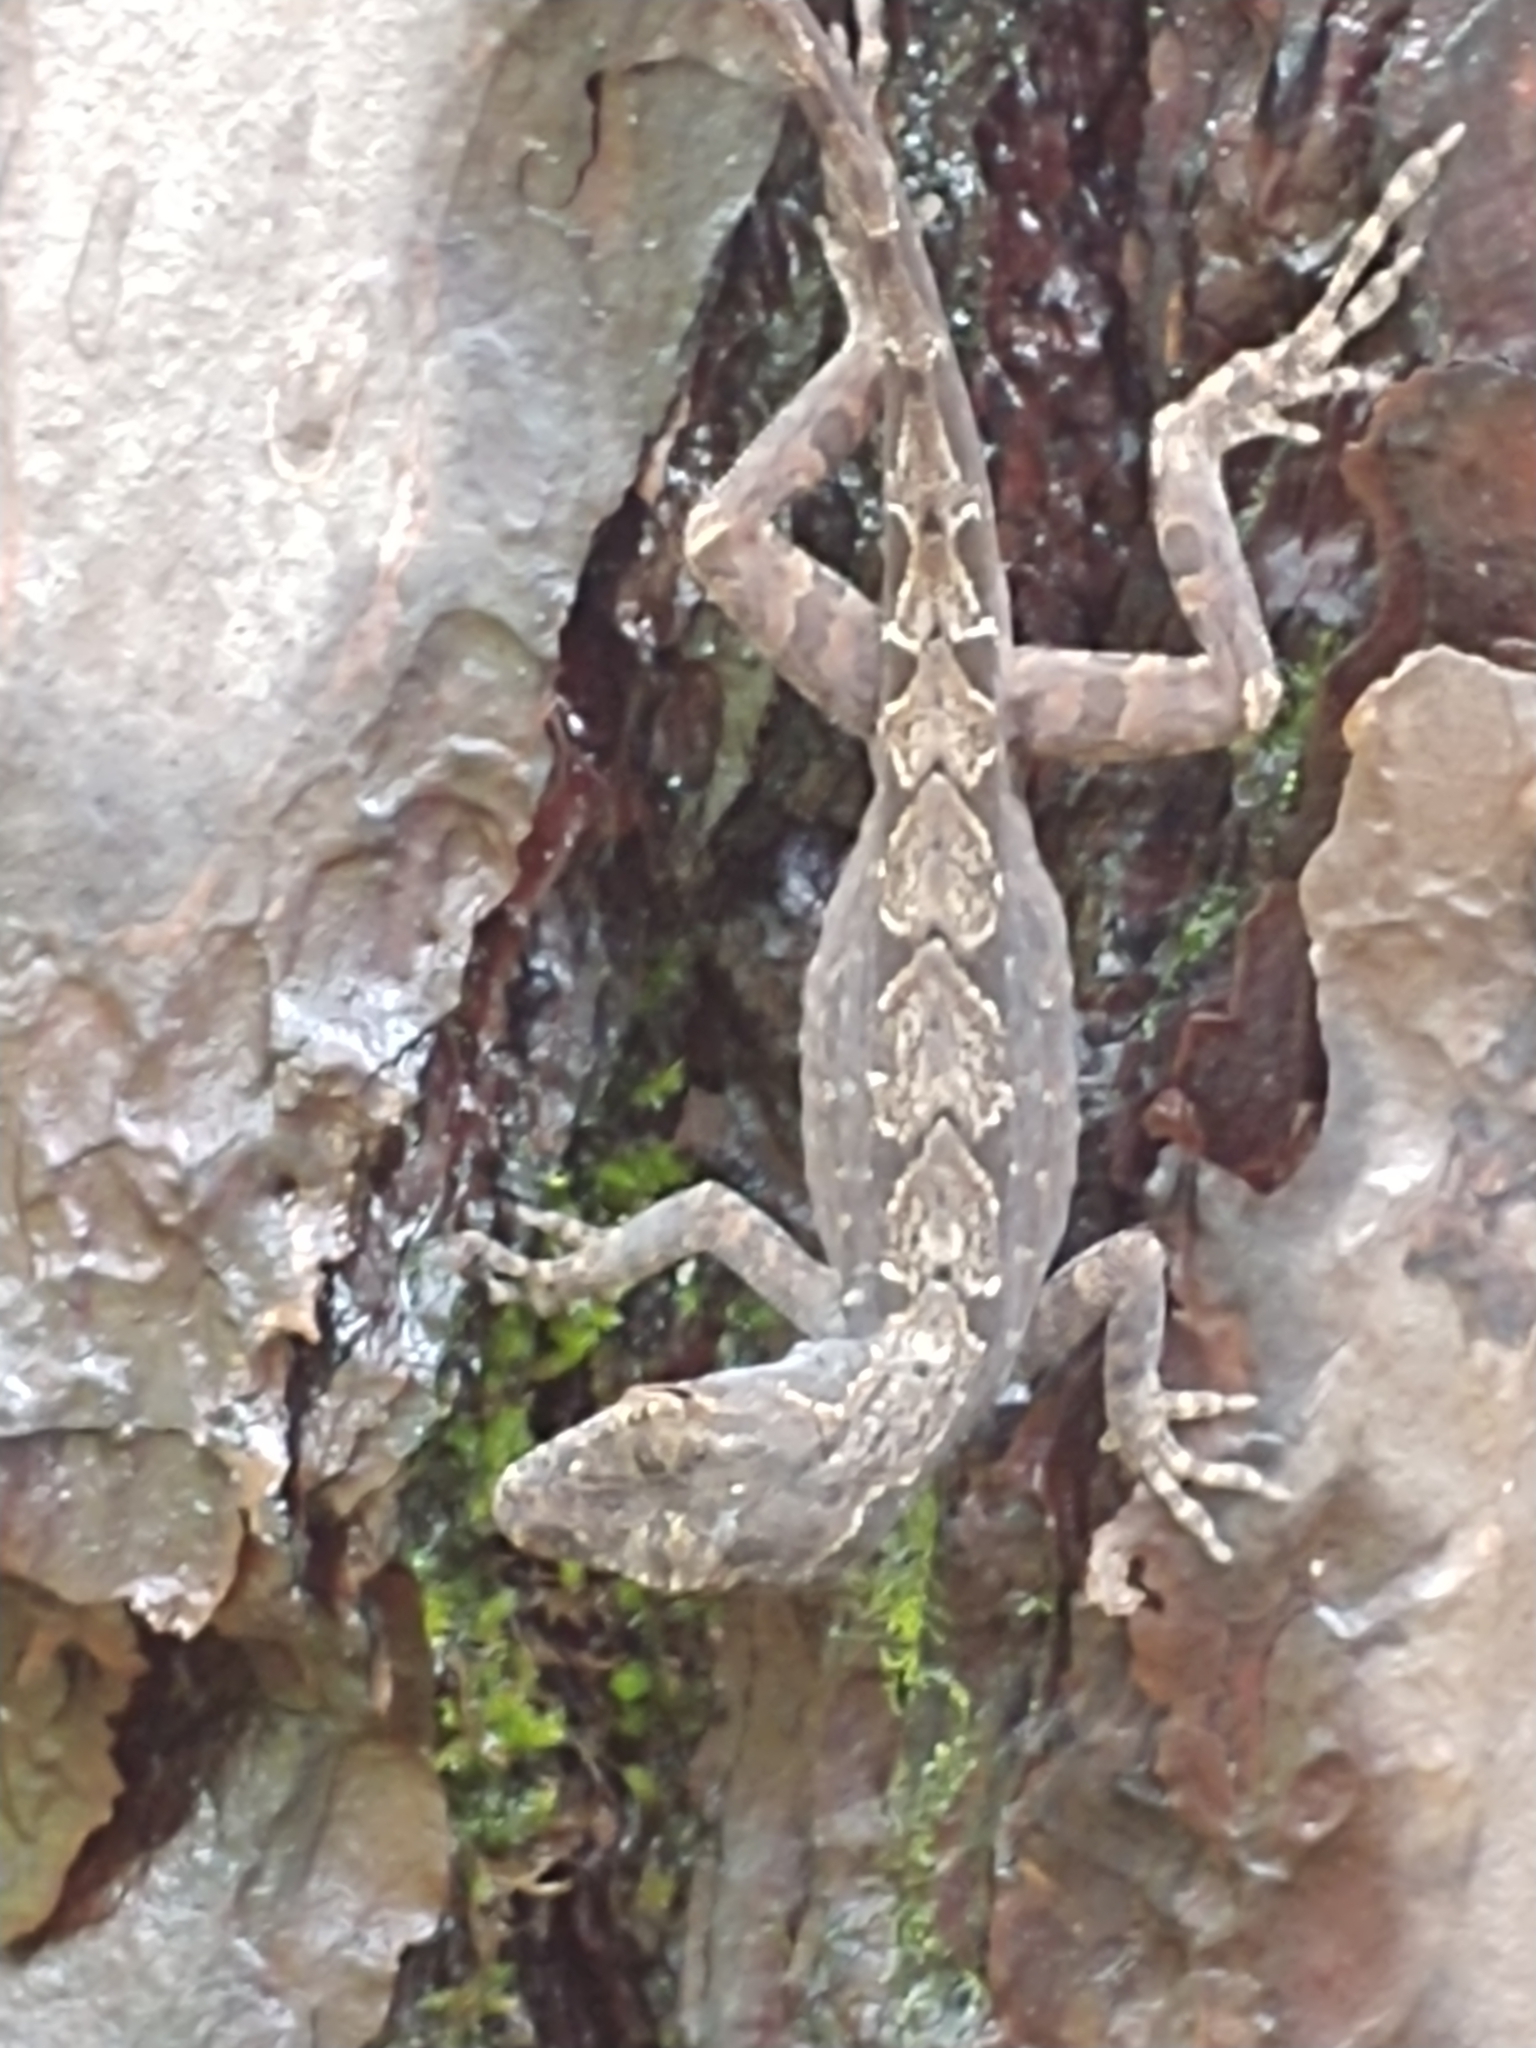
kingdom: Animalia
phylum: Chordata
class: Squamata
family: Dactyloidae
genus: Anolis
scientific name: Anolis sagrei
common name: Brown anole
